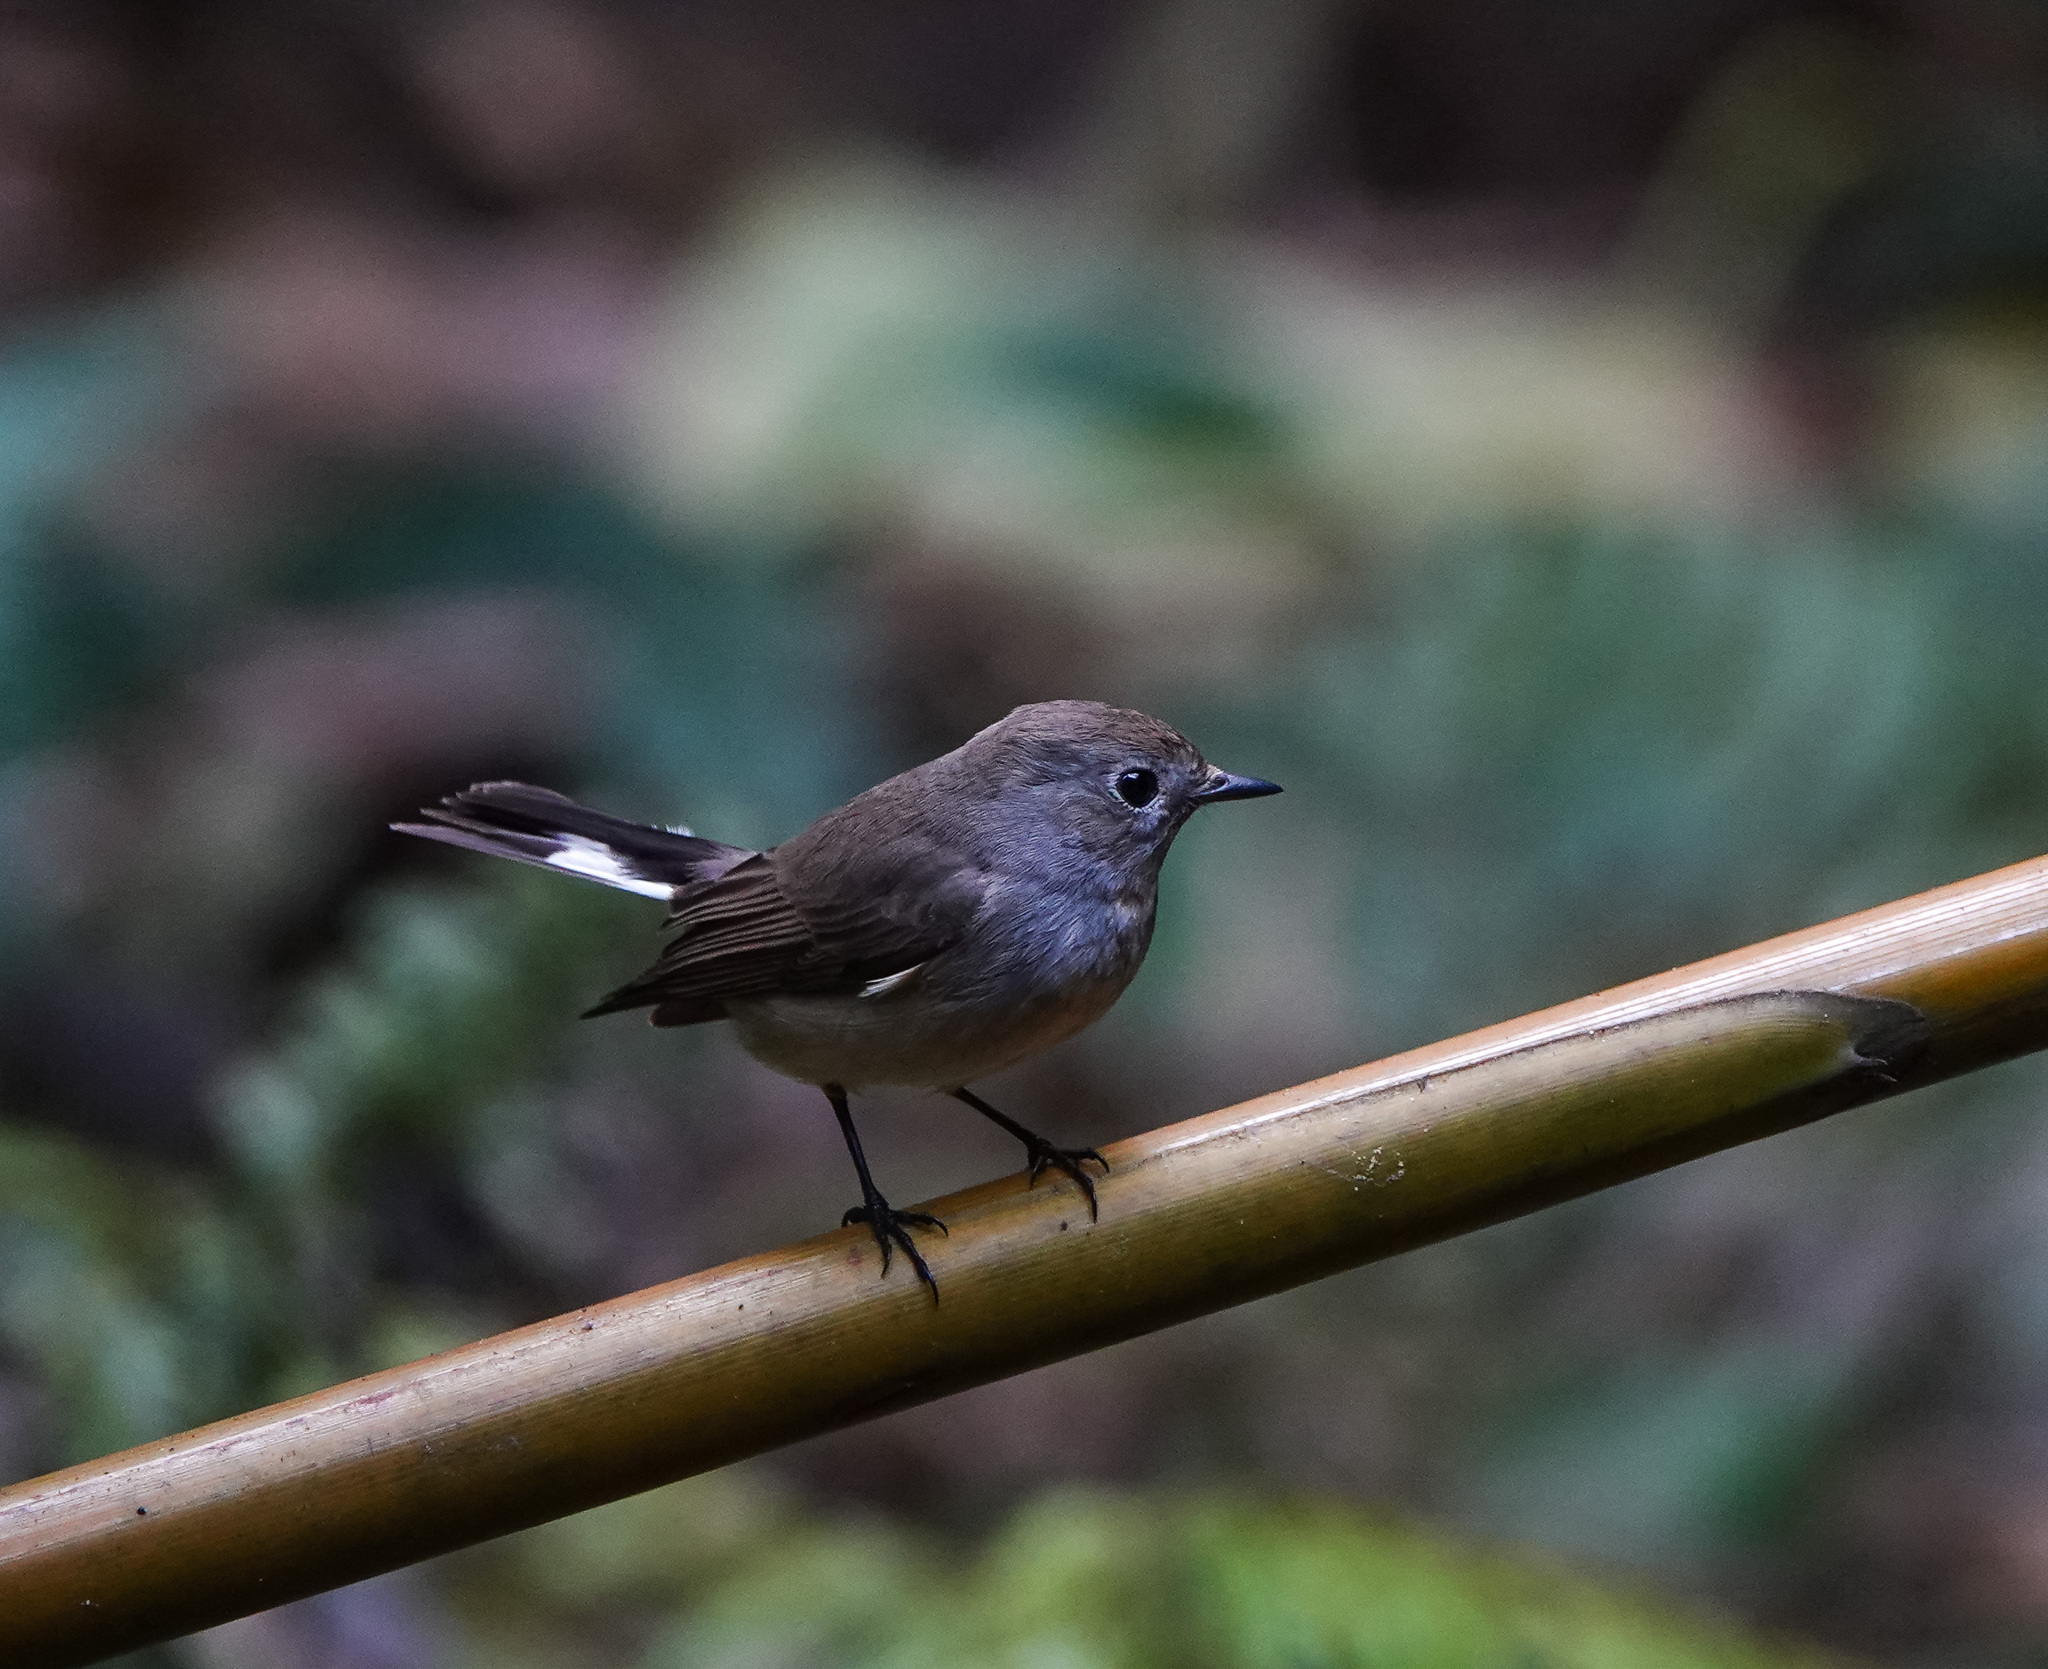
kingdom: Animalia
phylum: Chordata
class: Aves
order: Passeriformes
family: Muscicapidae
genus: Ficedula
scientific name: Ficedula albicilla
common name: Taiga flycatcher
